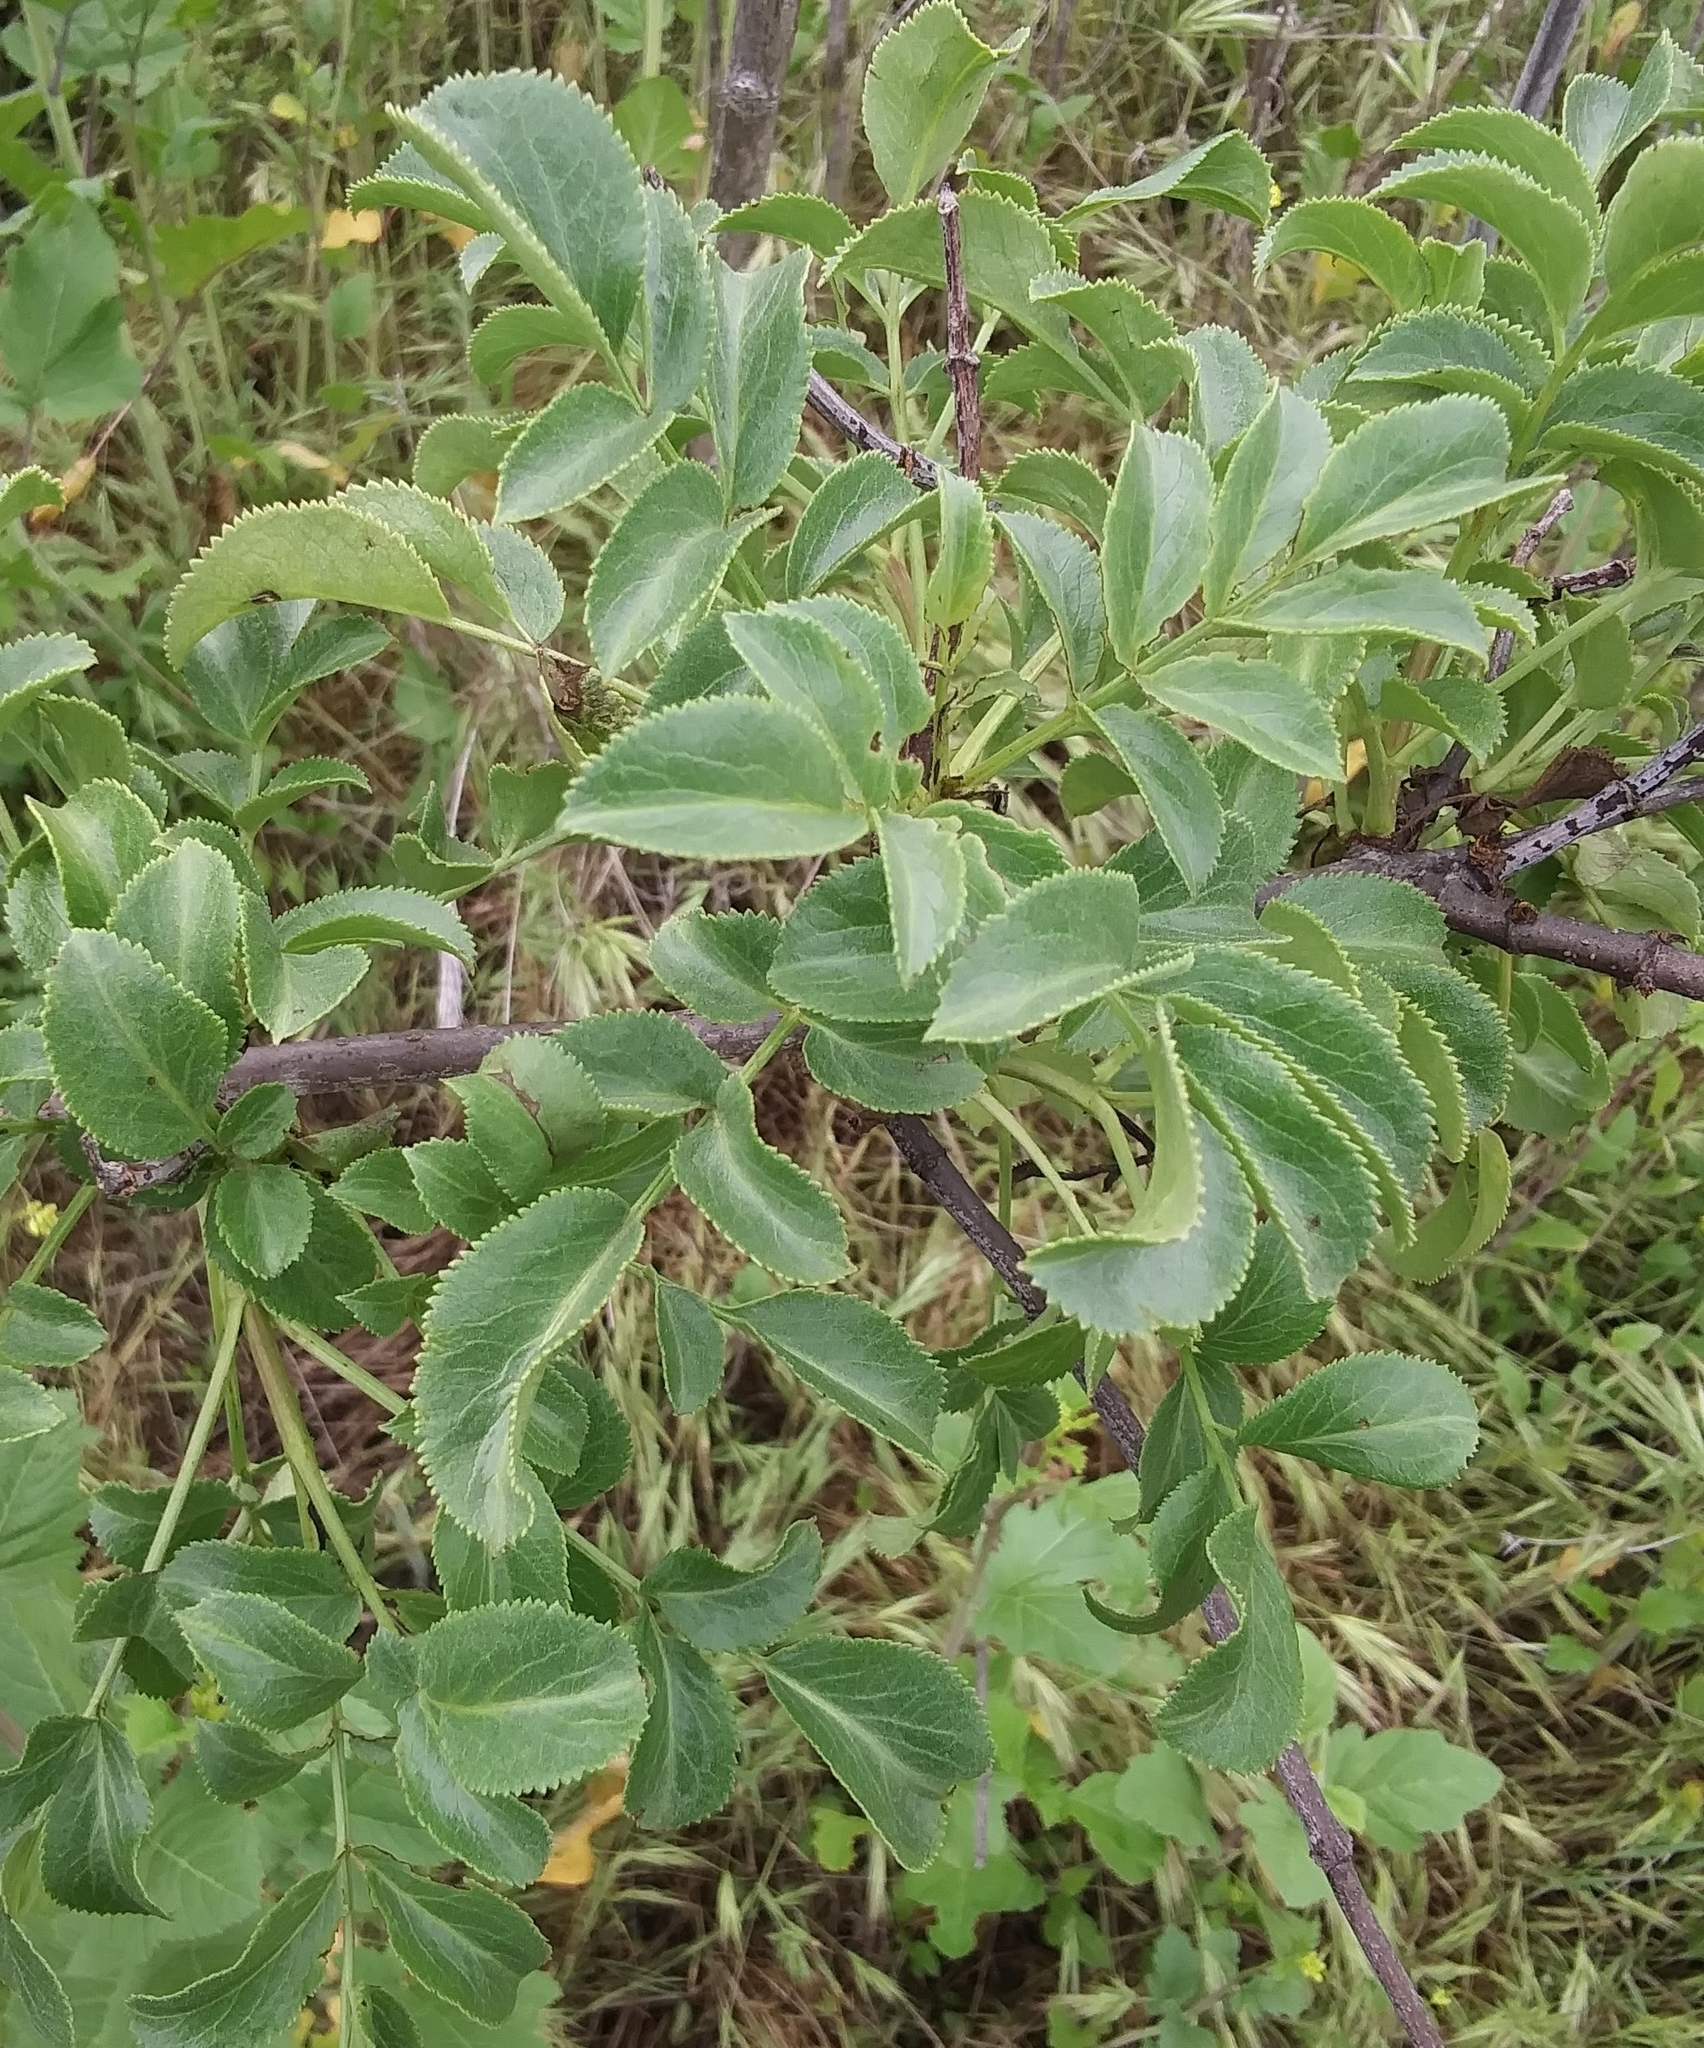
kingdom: Plantae
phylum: Tracheophyta
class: Magnoliopsida
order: Dipsacales
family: Viburnaceae
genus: Sambucus
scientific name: Sambucus cerulea
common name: Blue elder
